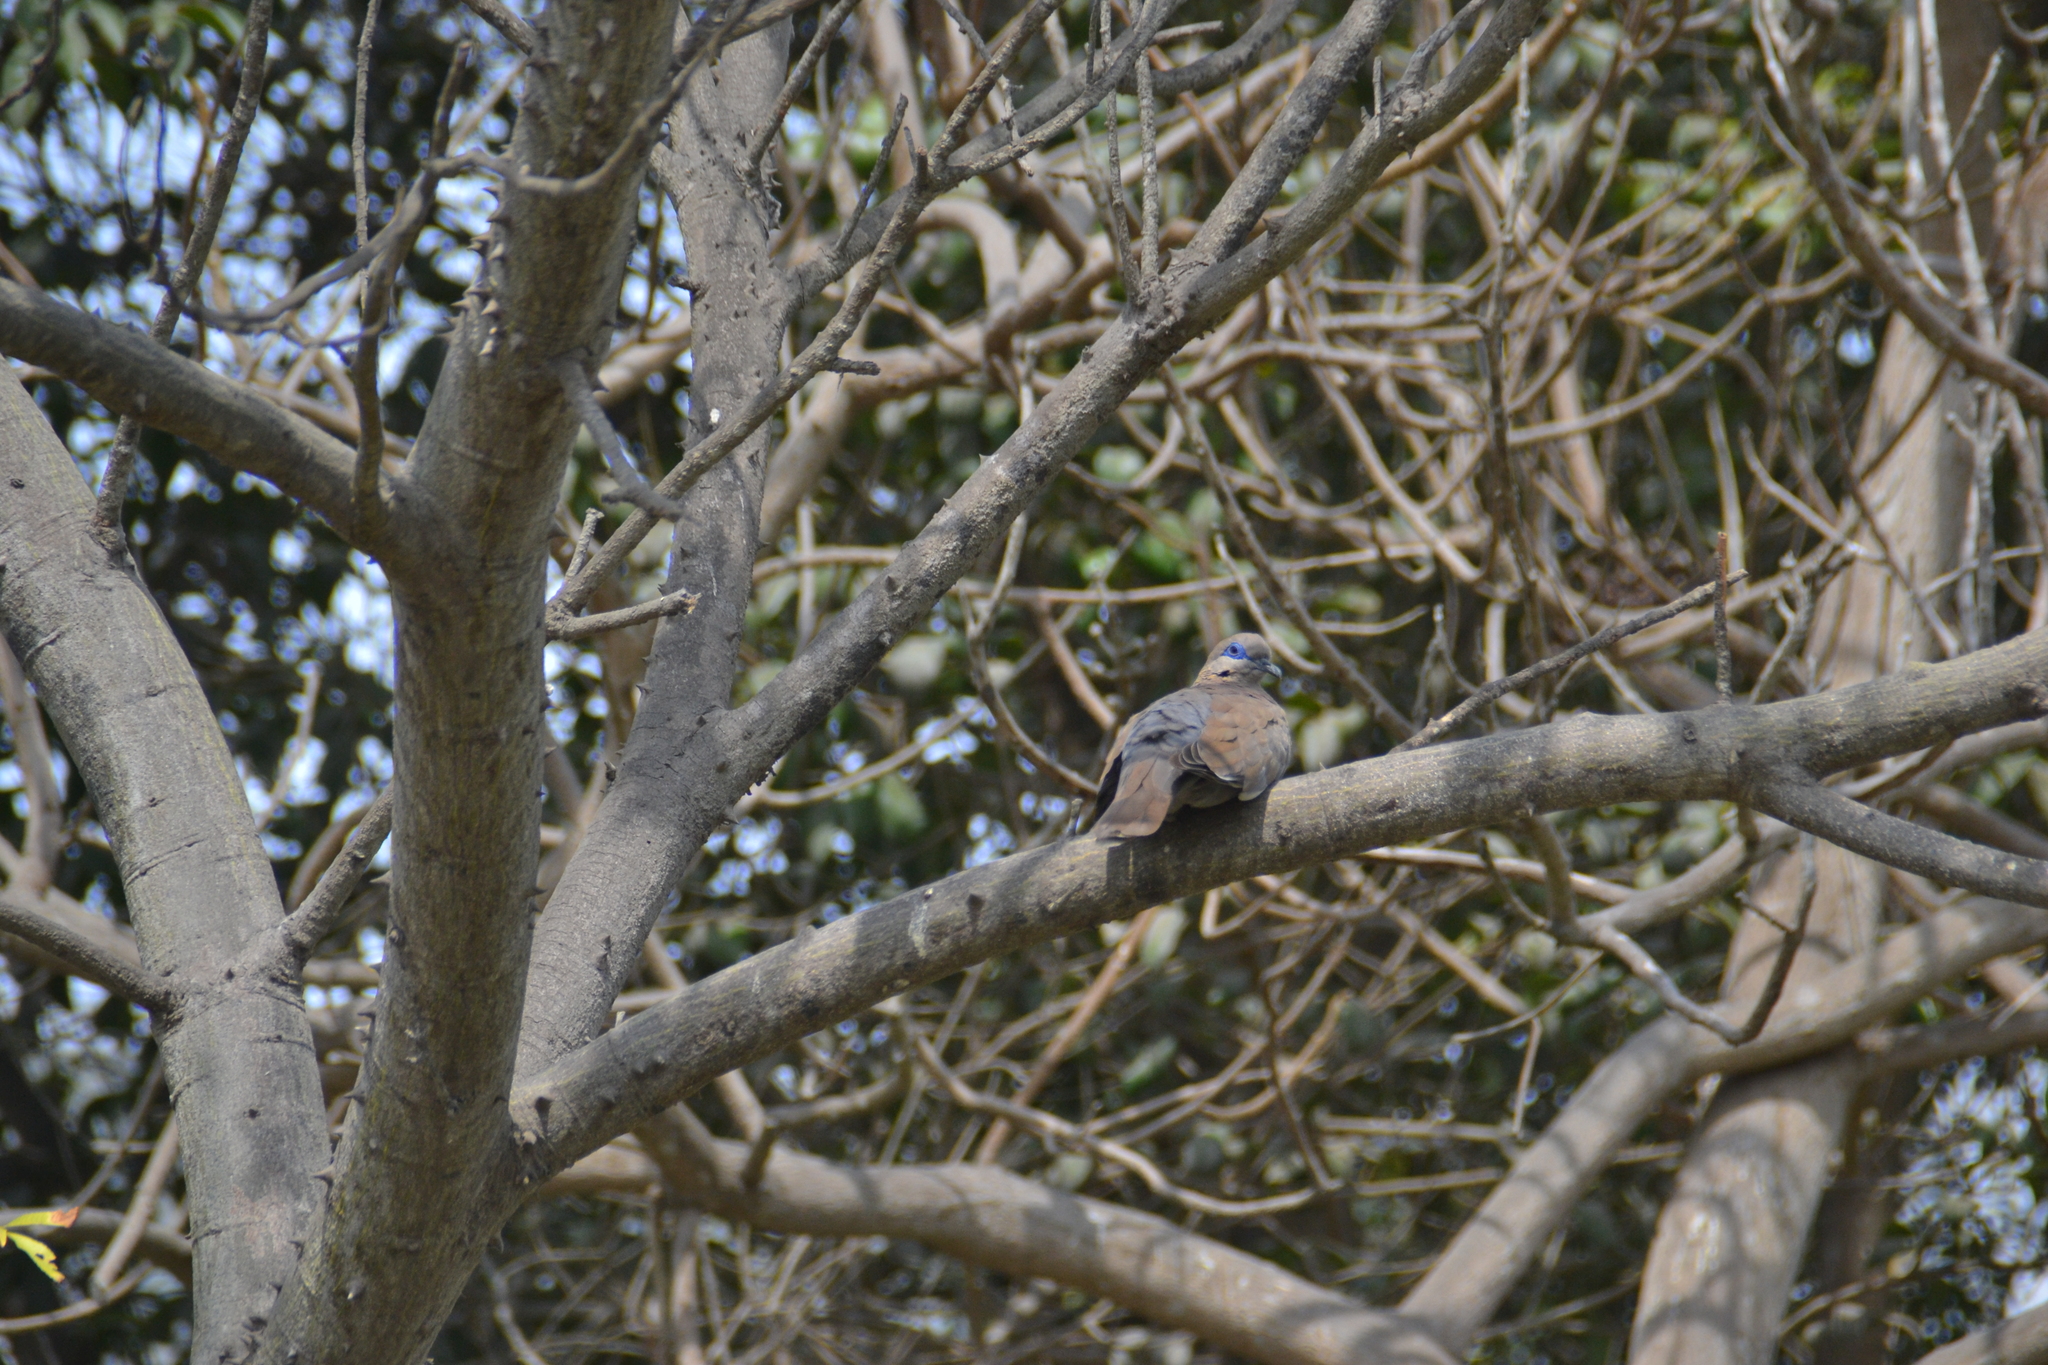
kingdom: Animalia
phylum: Chordata
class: Aves
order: Columbiformes
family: Columbidae
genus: Zenaida
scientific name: Zenaida meloda
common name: West peruvian dove
